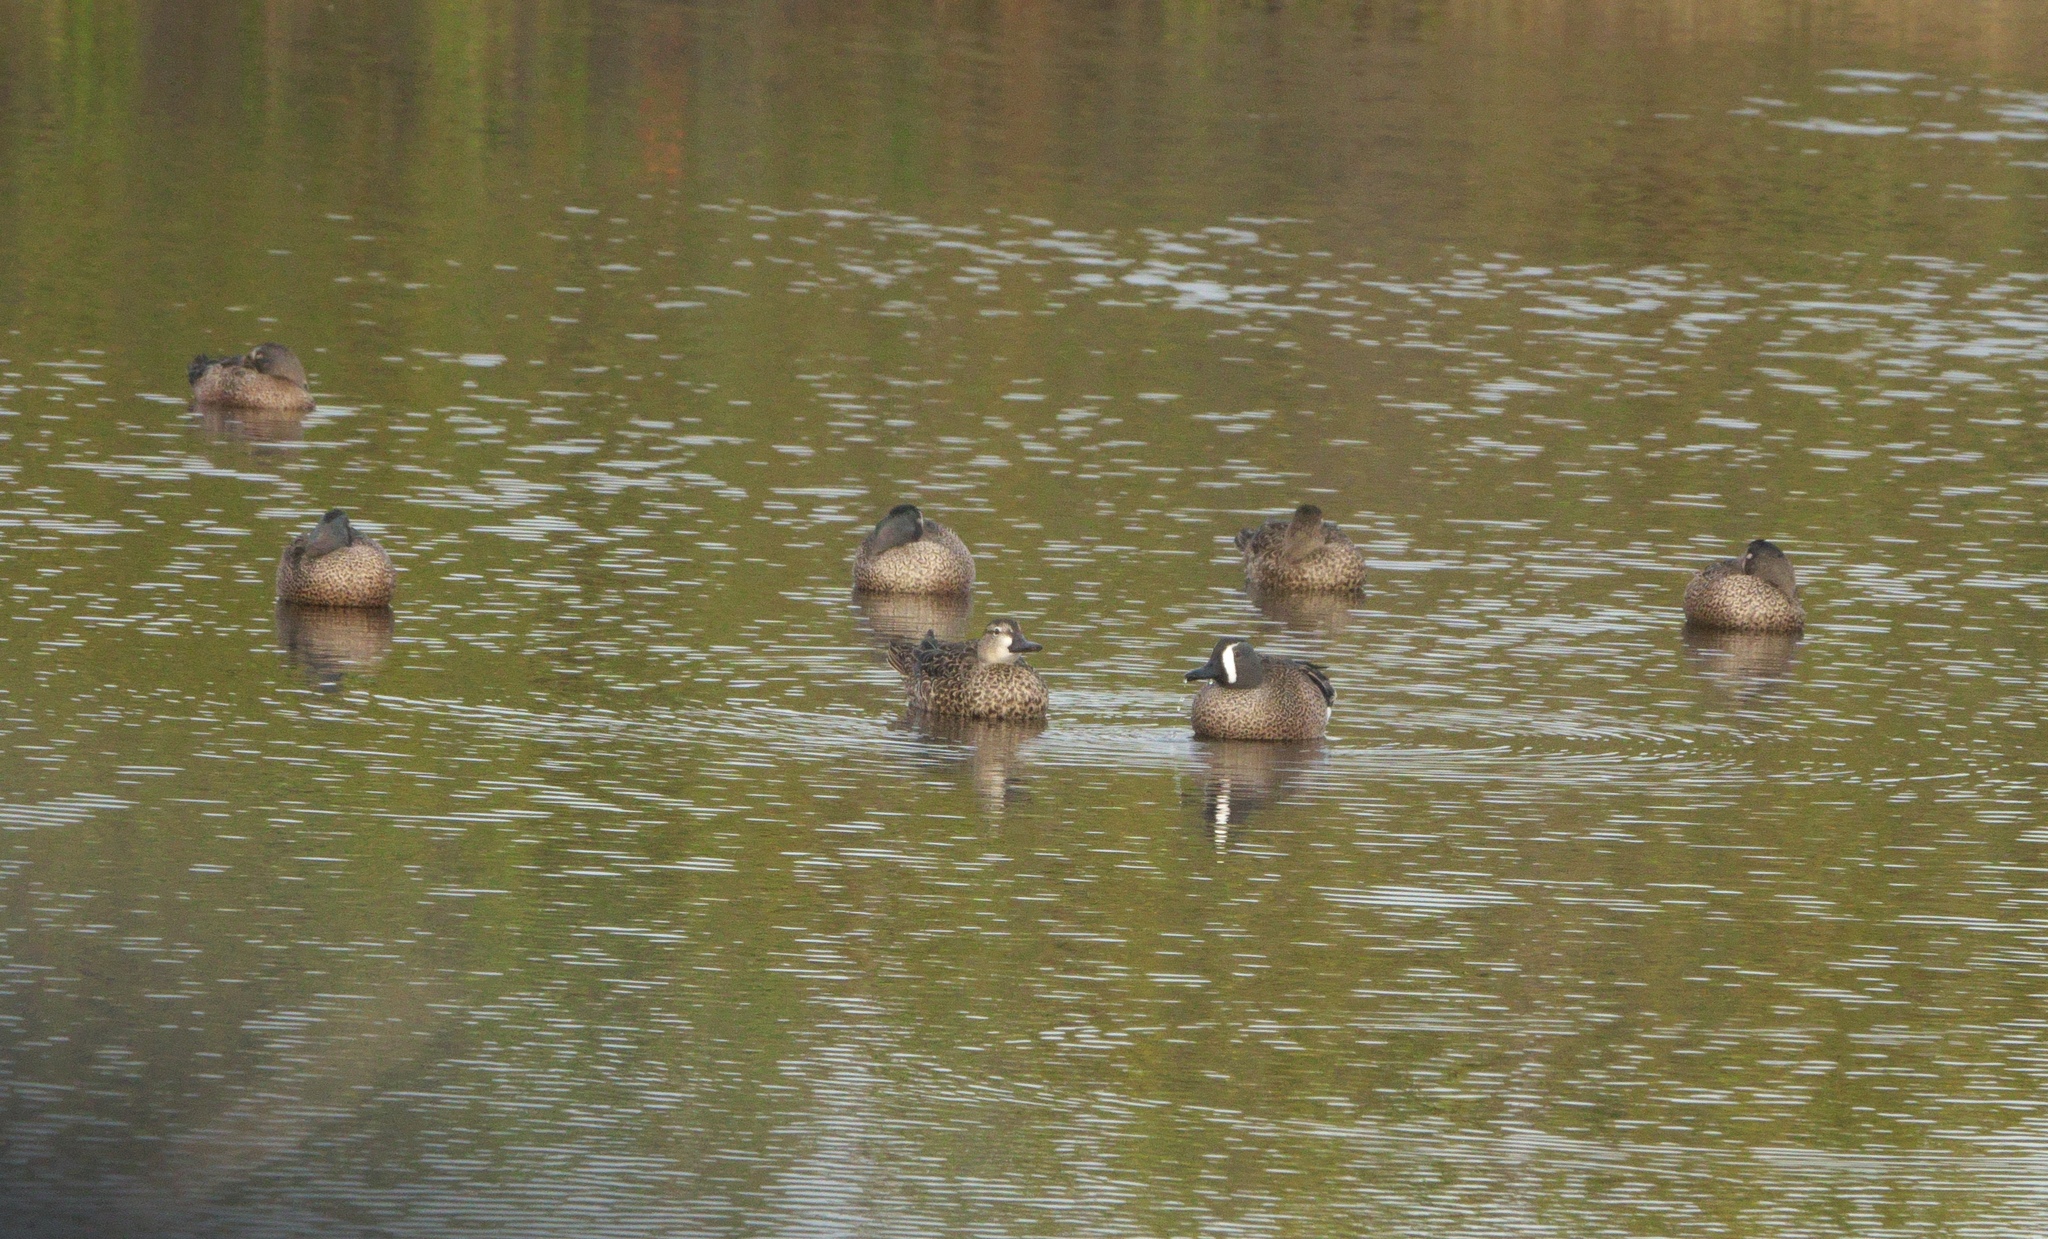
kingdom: Animalia
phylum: Chordata
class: Aves
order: Anseriformes
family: Anatidae
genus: Spatula
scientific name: Spatula discors
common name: Blue-winged teal
